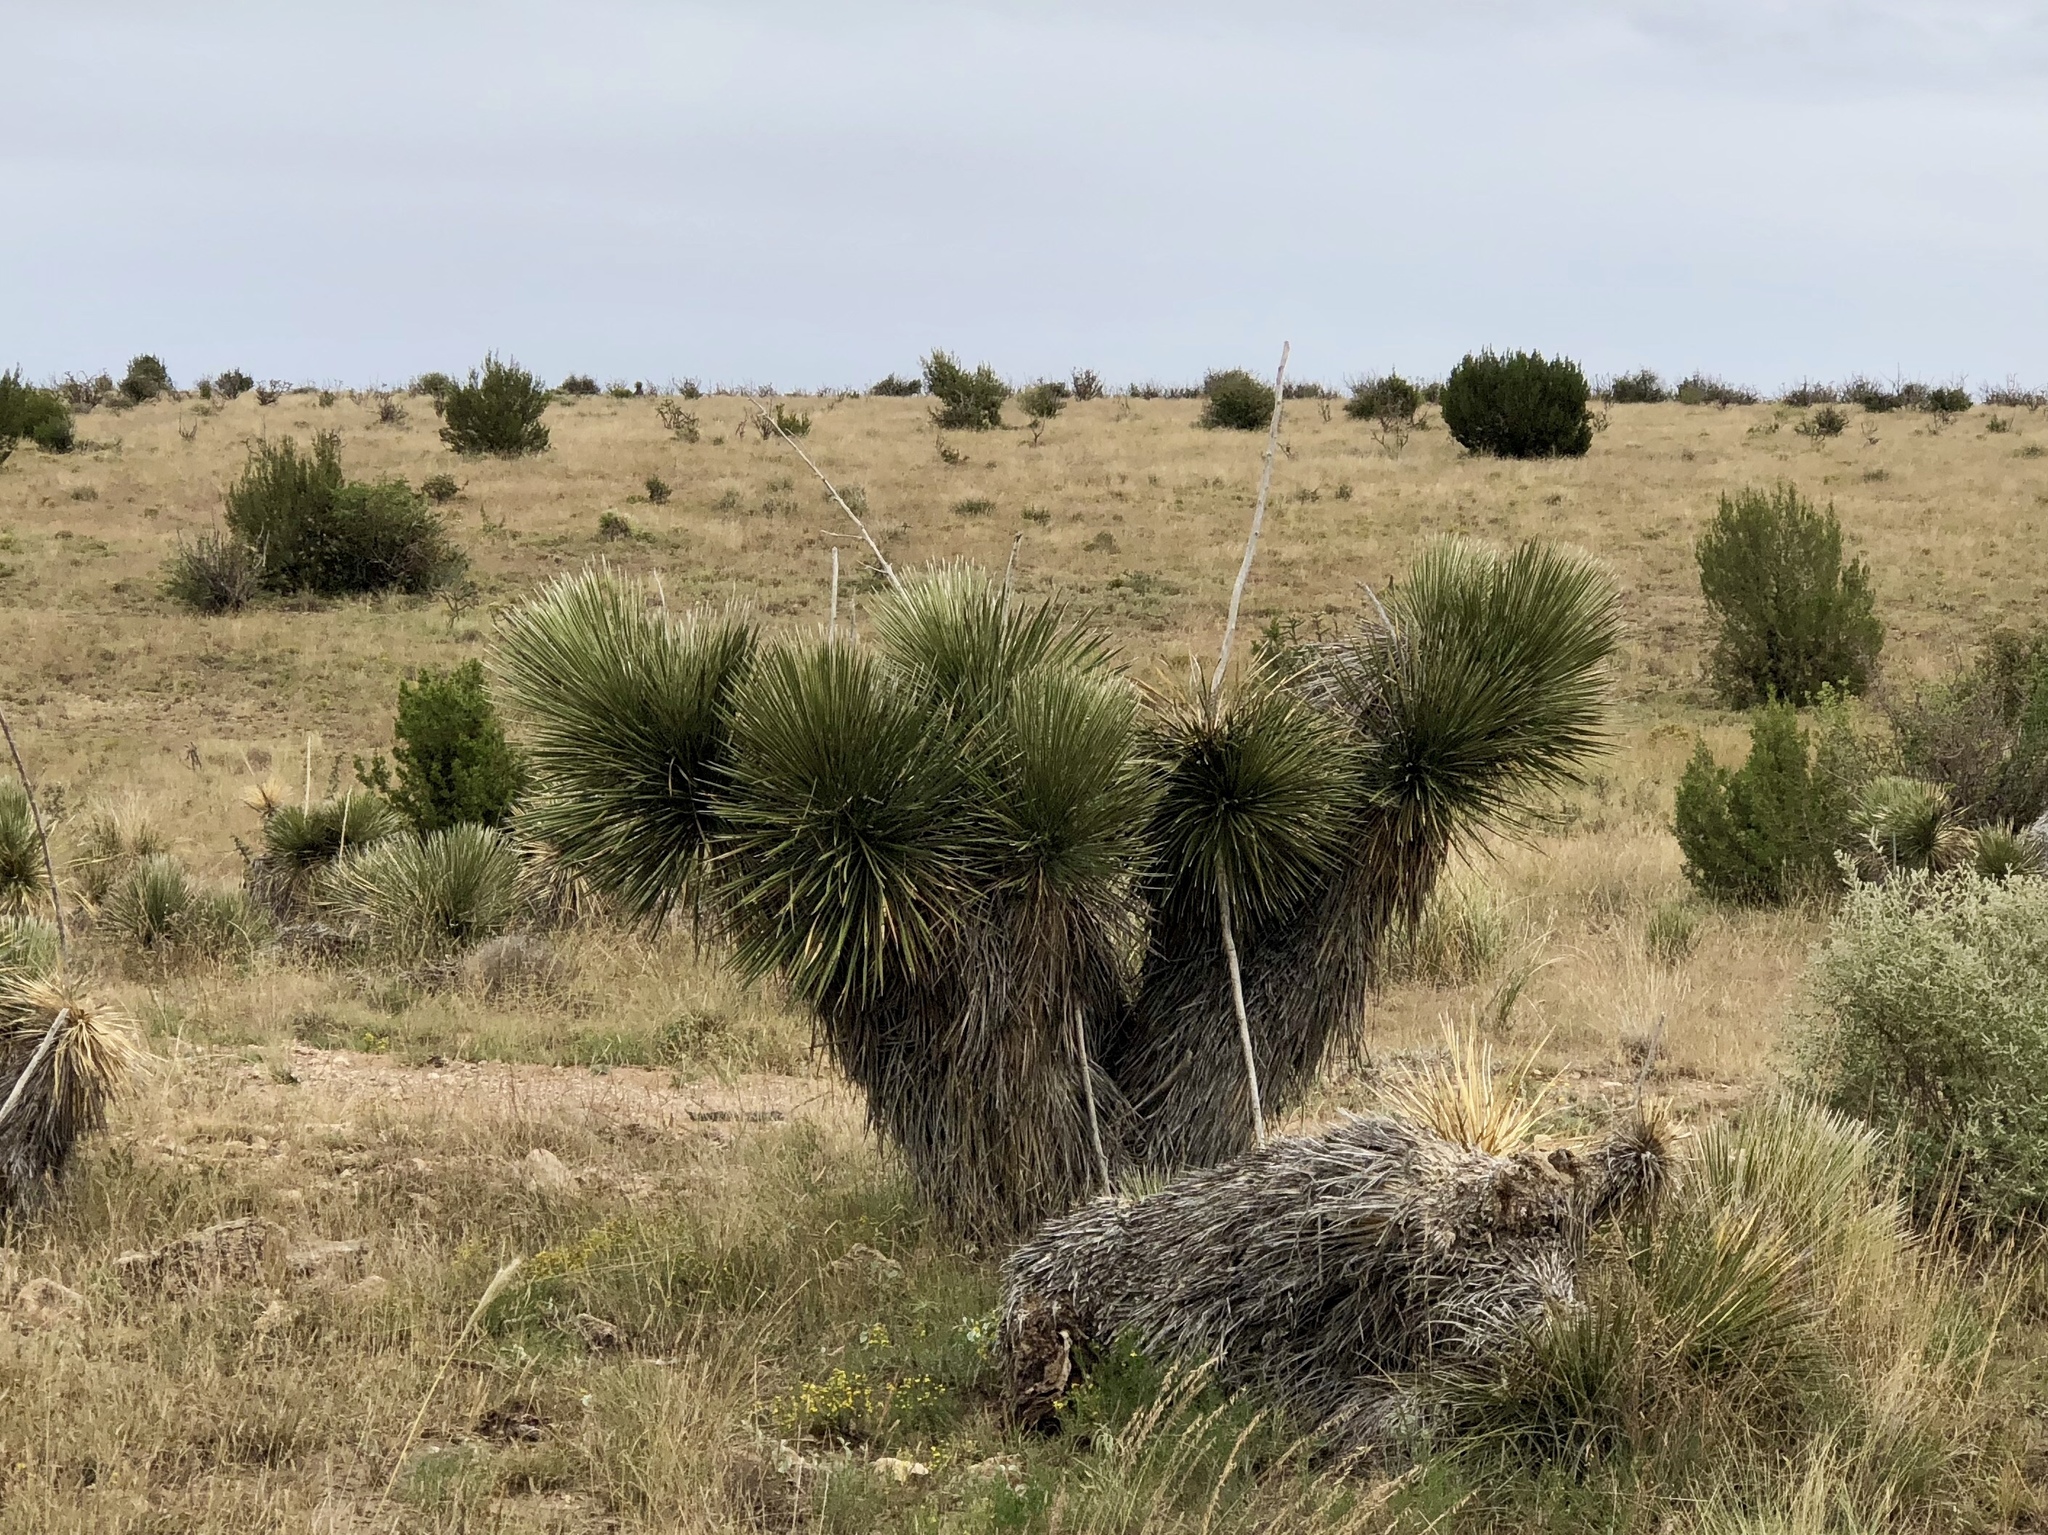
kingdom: Plantae
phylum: Tracheophyta
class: Liliopsida
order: Asparagales
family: Asparagaceae
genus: Yucca
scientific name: Yucca elata
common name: Palmella
